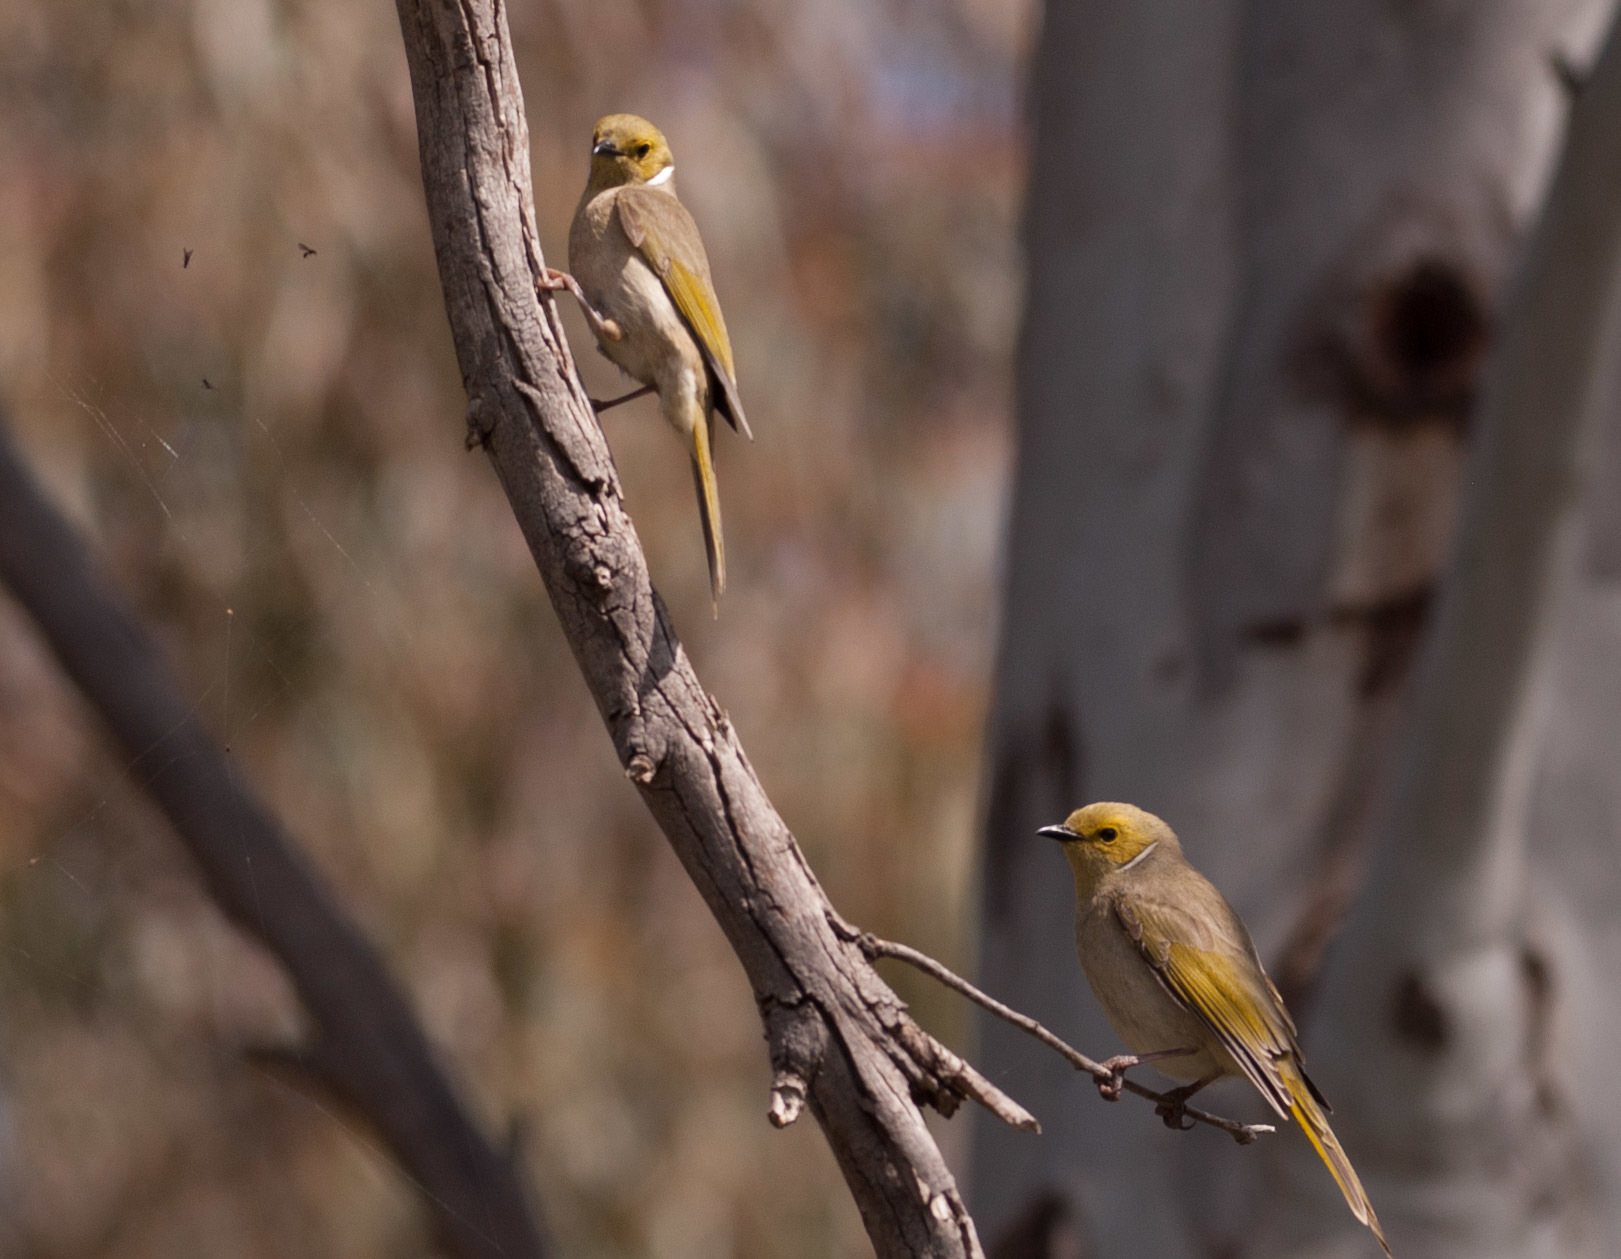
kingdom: Animalia
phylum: Chordata
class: Aves
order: Passeriformes
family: Meliphagidae
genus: Ptilotula
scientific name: Ptilotula penicillata
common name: White-plumed honeyeater
